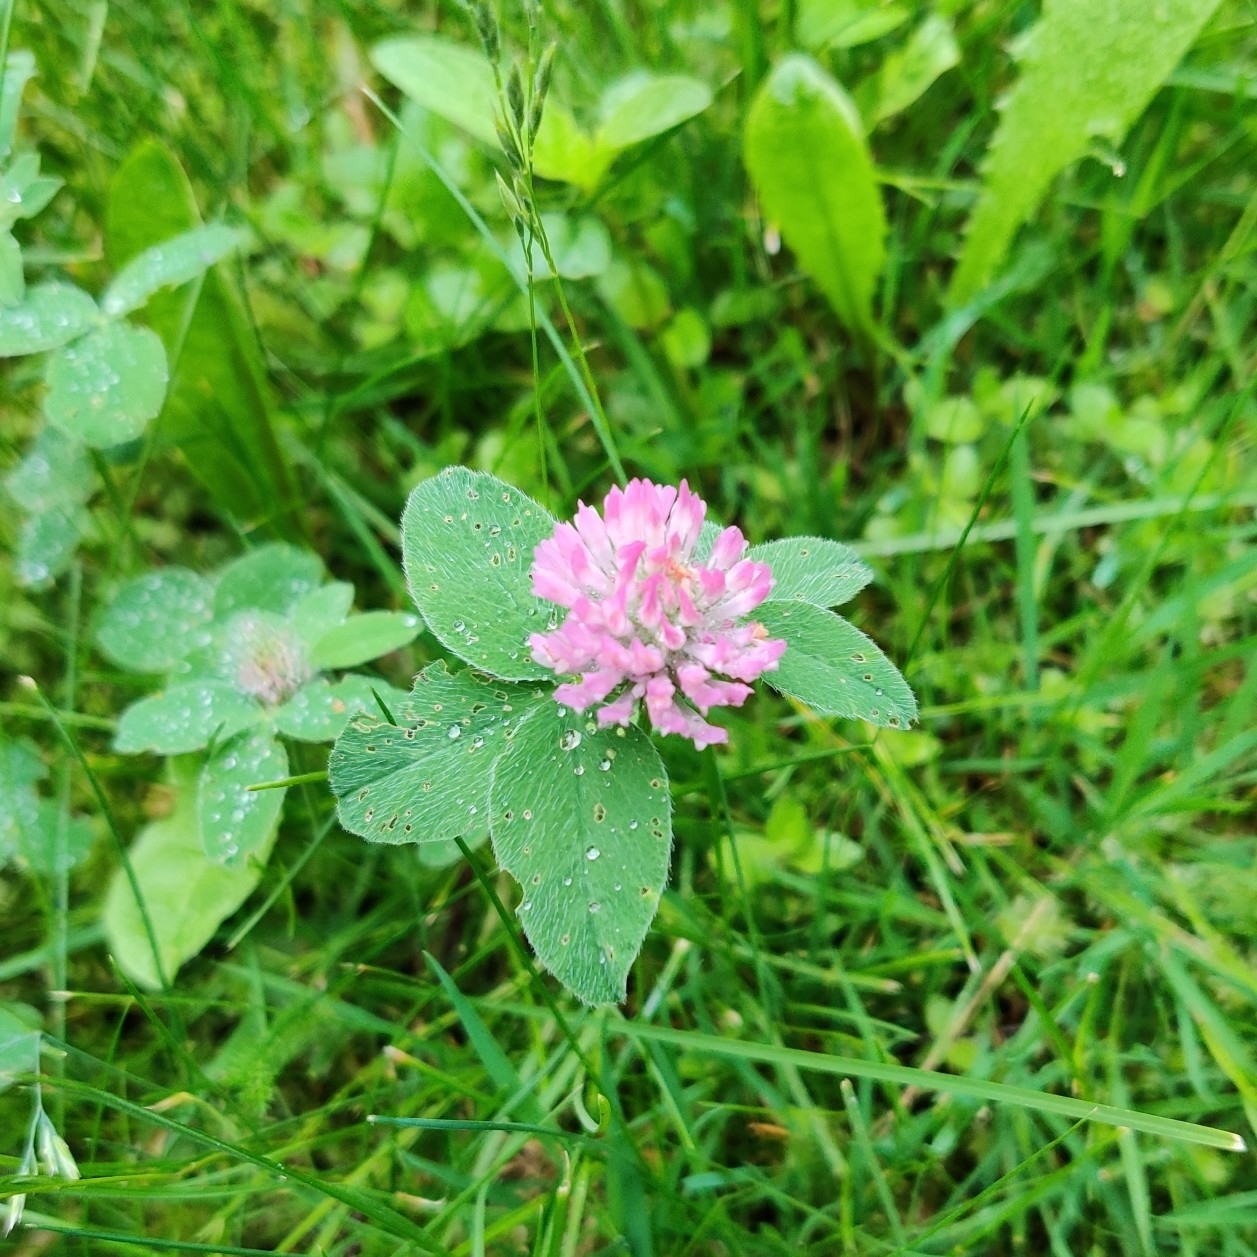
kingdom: Plantae
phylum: Tracheophyta
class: Magnoliopsida
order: Fabales
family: Fabaceae
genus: Trifolium
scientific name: Trifolium pratense
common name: Red clover
